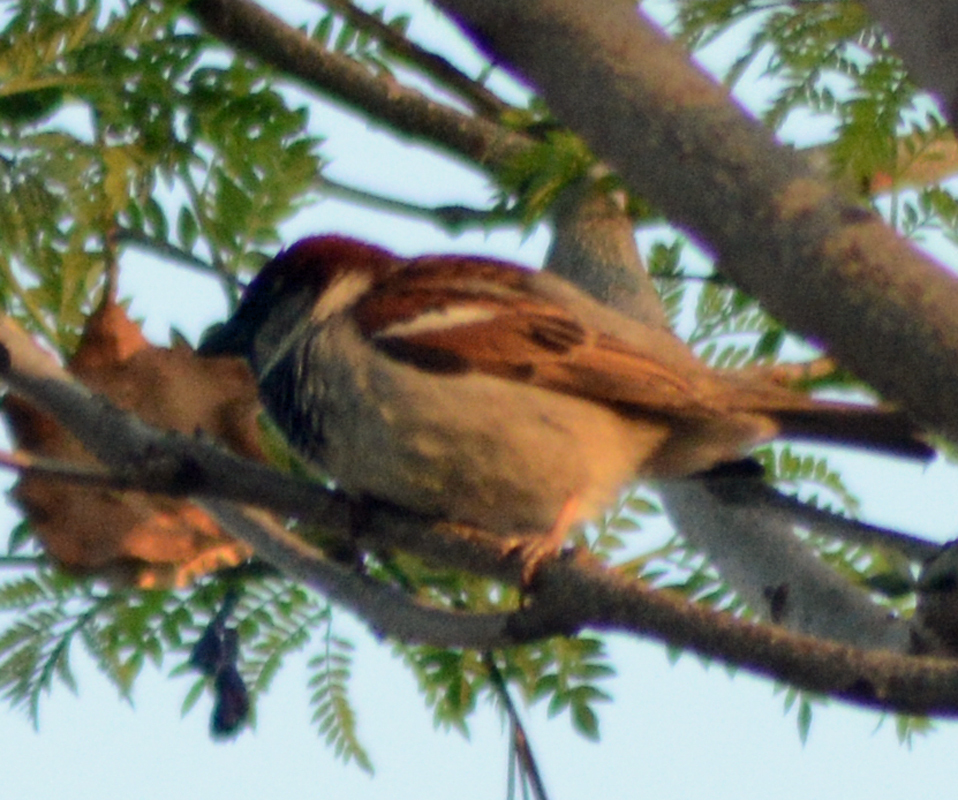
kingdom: Animalia
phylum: Chordata
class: Aves
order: Passeriformes
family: Passeridae
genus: Passer
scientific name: Passer domesticus
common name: House sparrow
